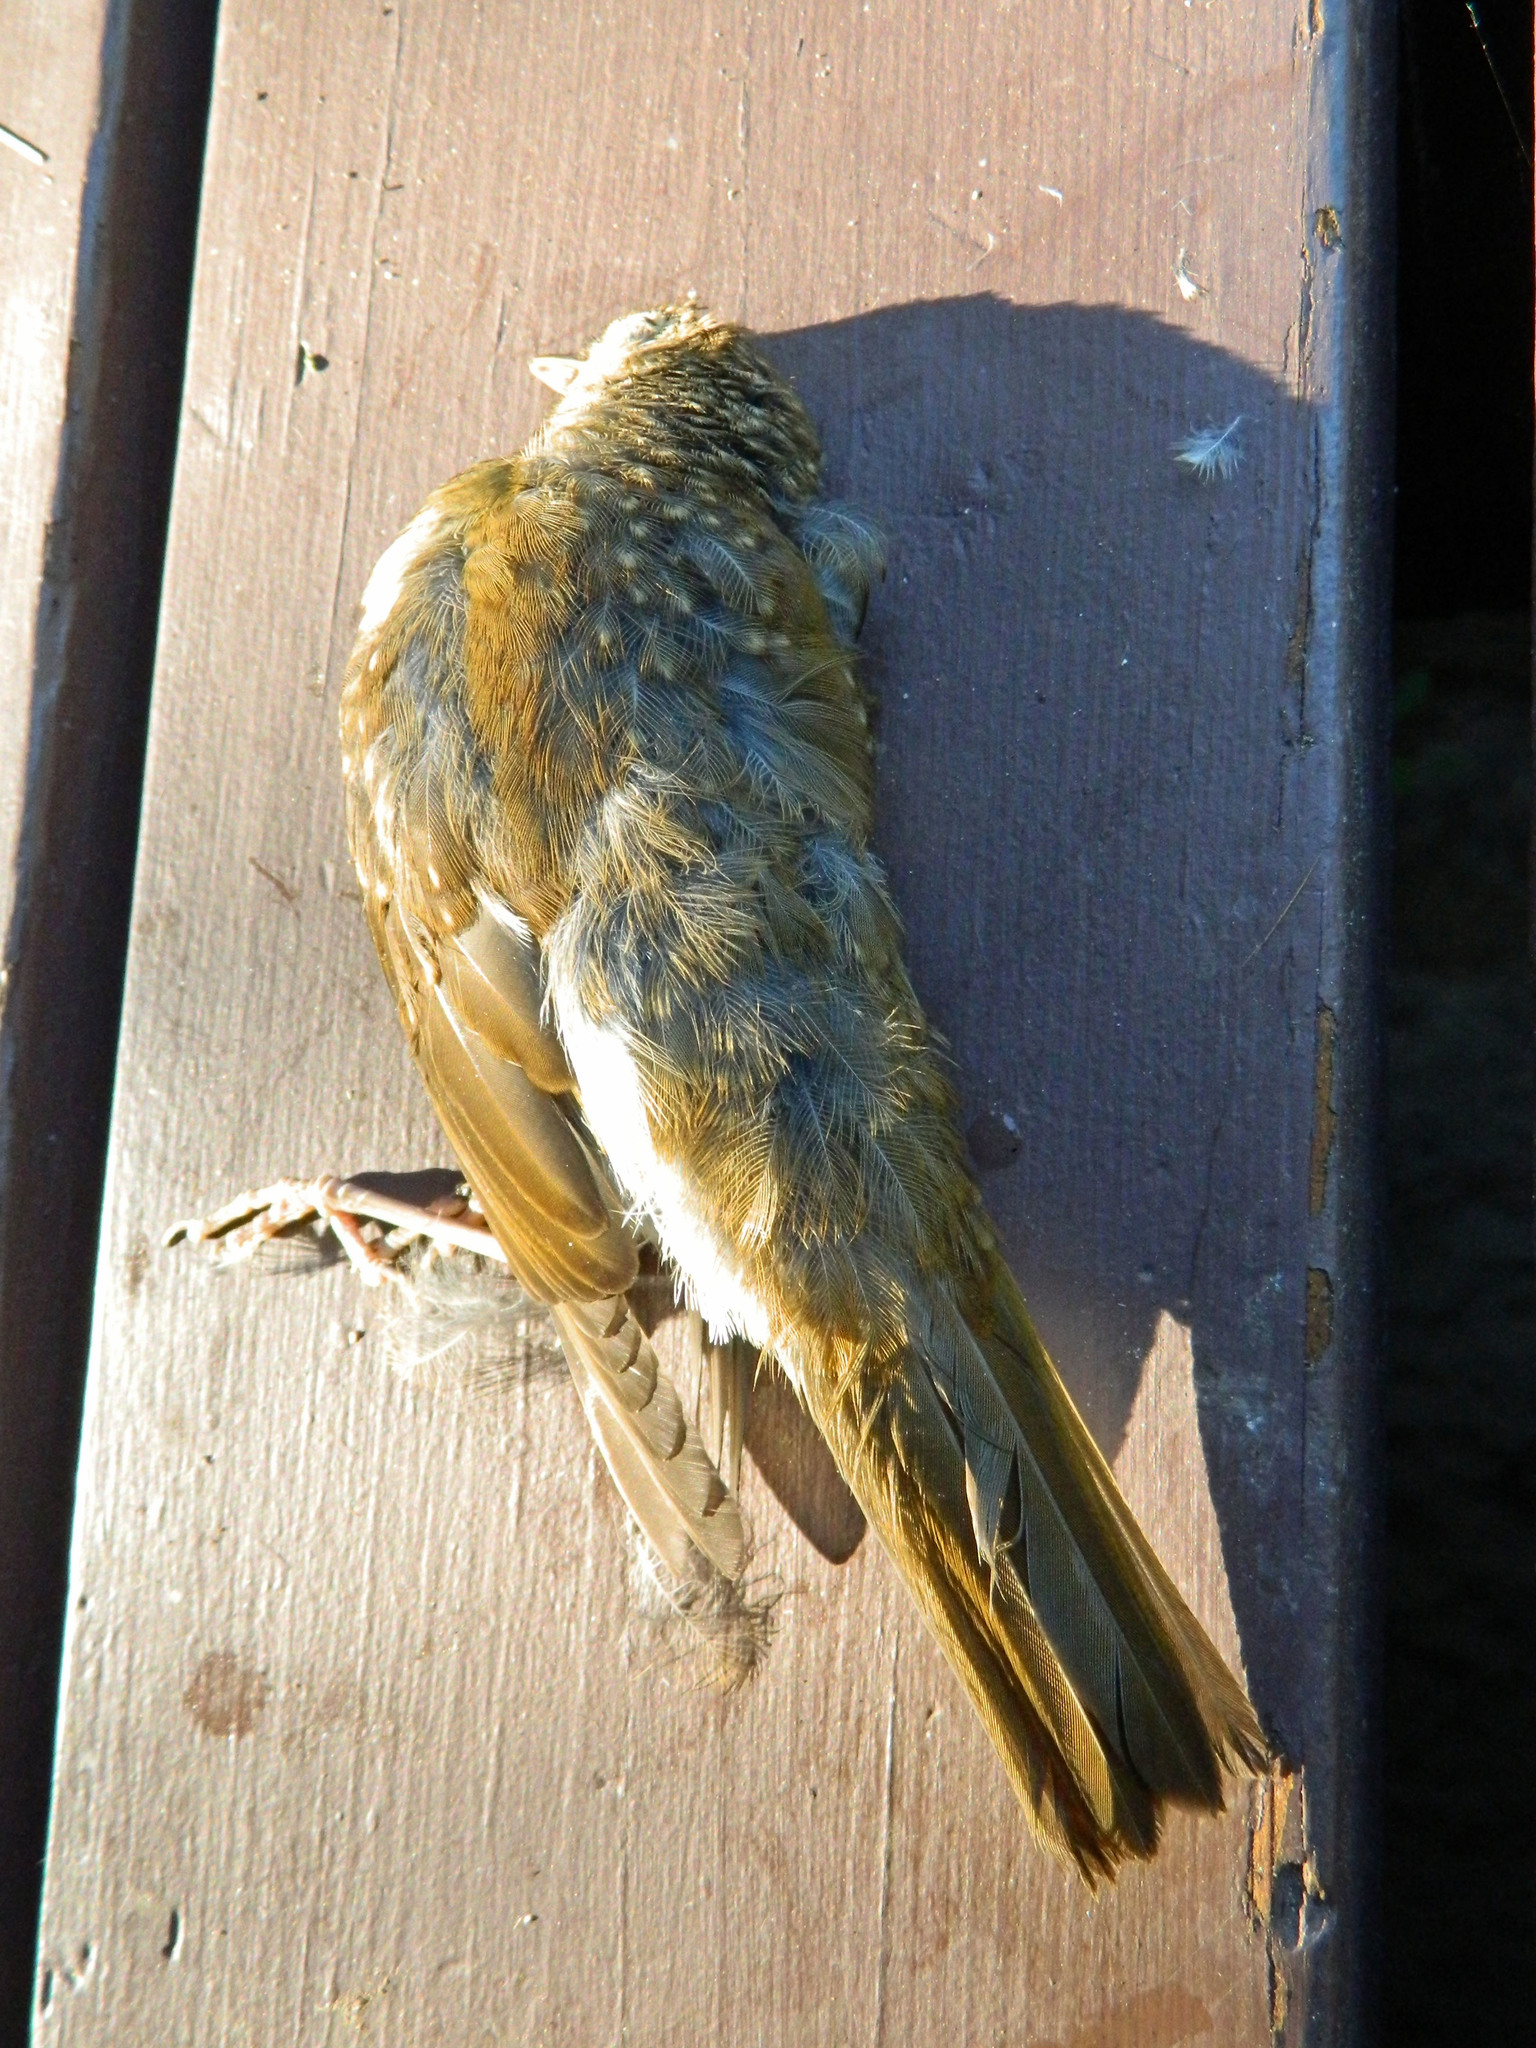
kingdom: Animalia
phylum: Chordata
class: Aves
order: Passeriformes
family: Turdidae
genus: Catharus
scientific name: Catharus fuscescens
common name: Veery
